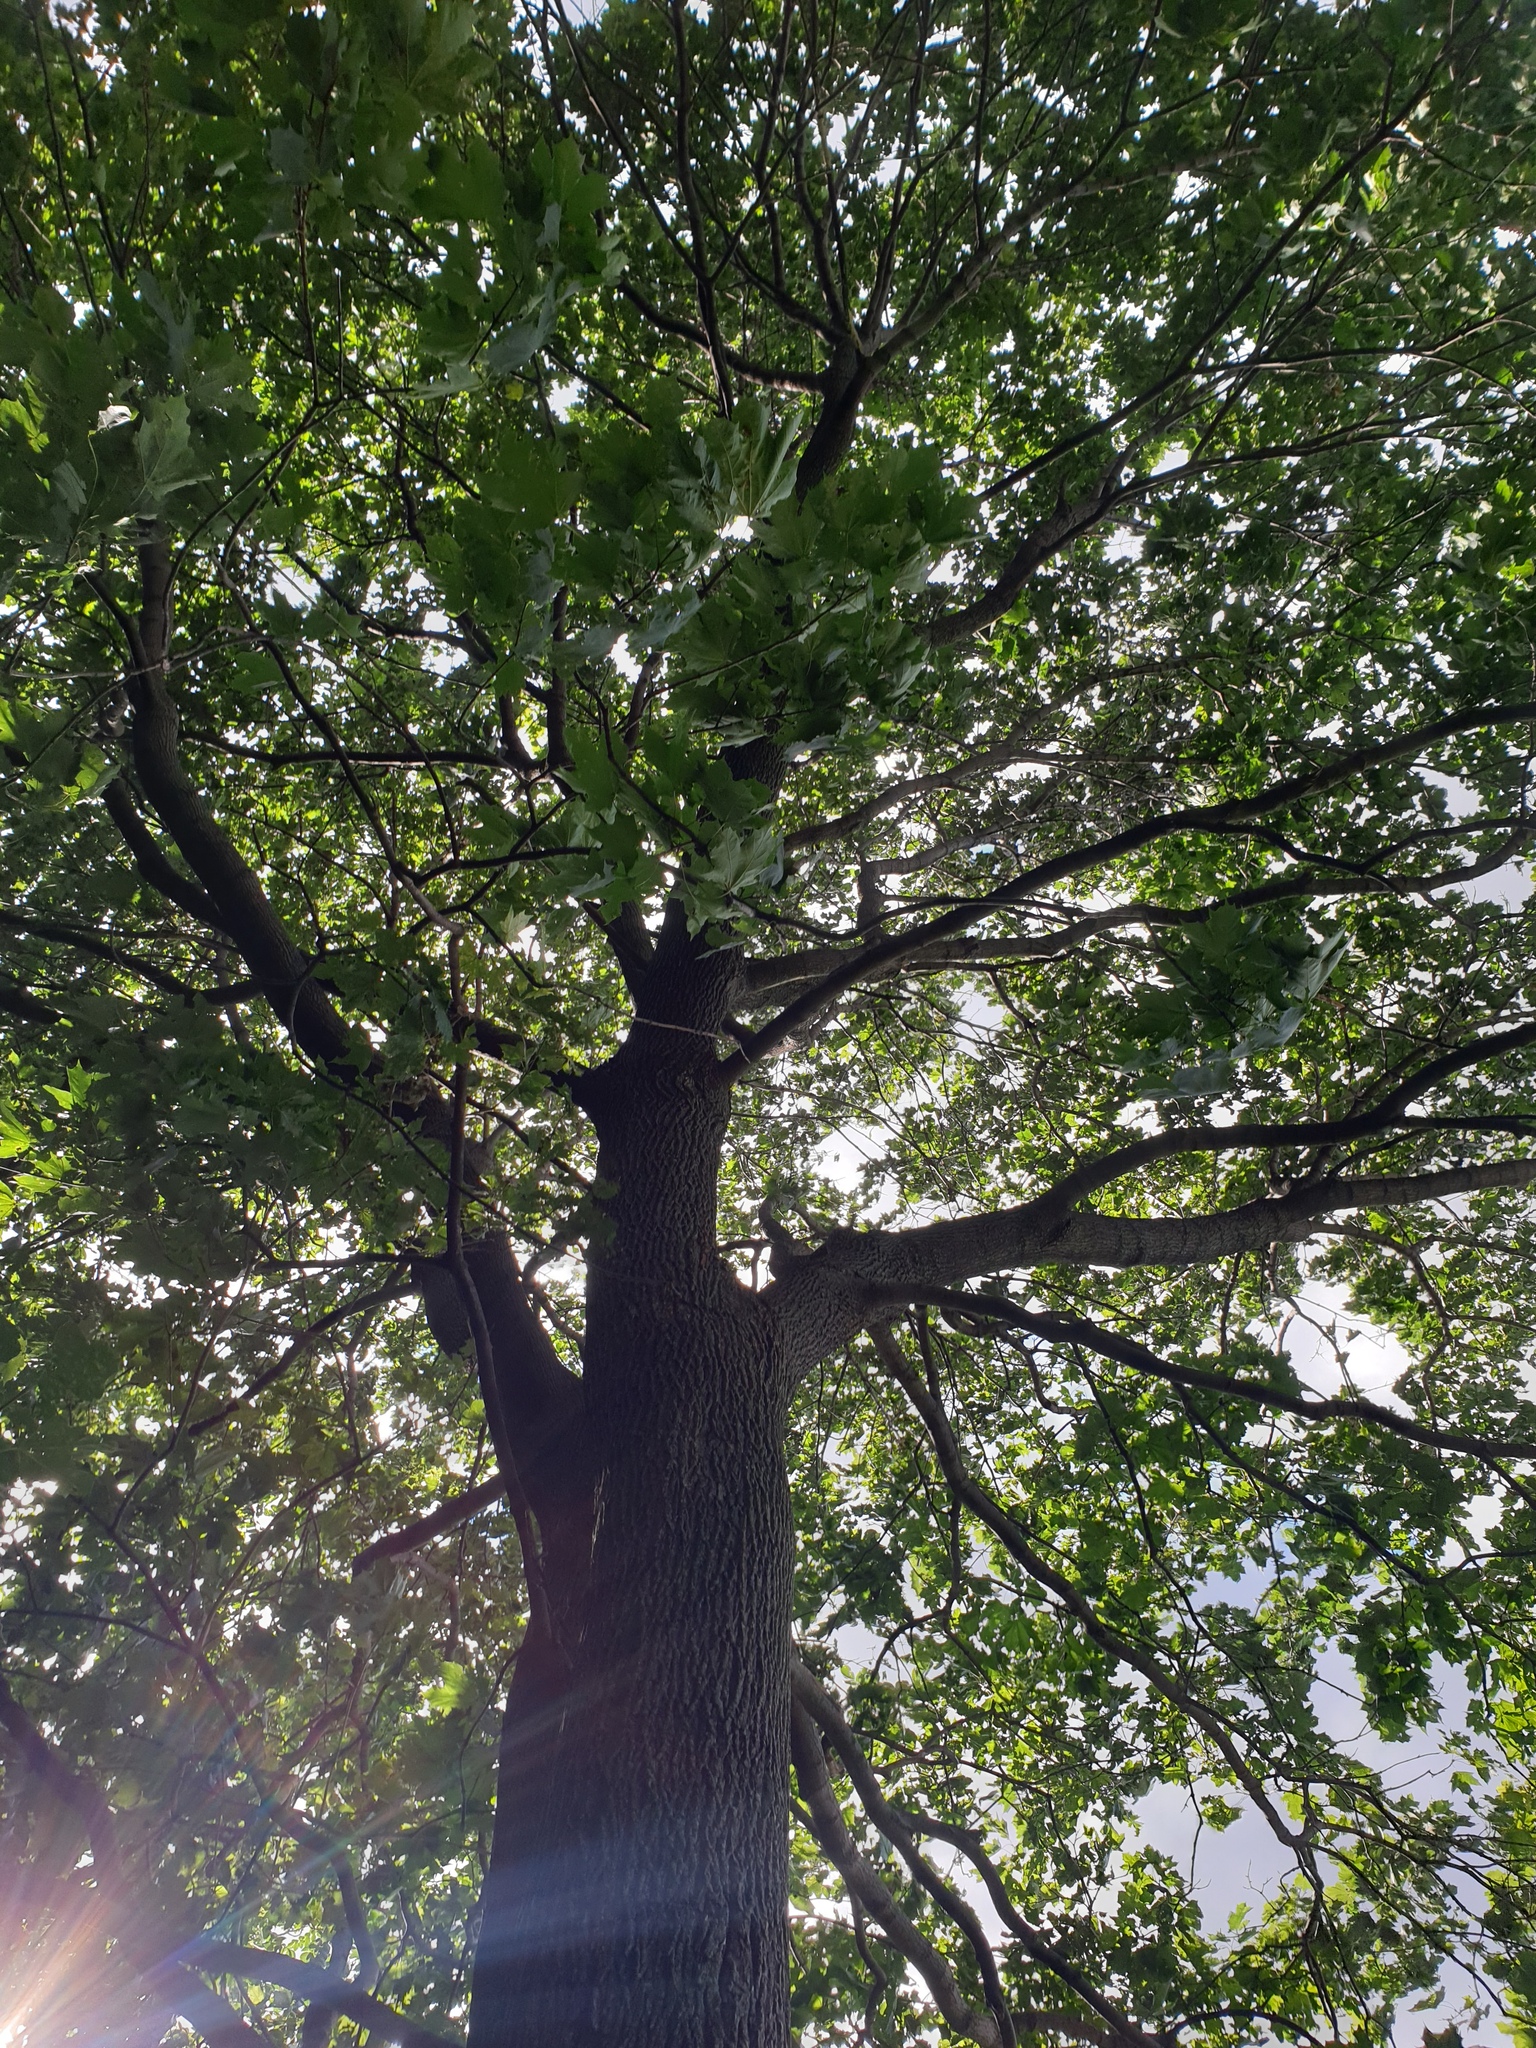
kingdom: Plantae
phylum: Tracheophyta
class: Magnoliopsida
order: Sapindales
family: Sapindaceae
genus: Acer
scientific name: Acer platanoides
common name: Norway maple
